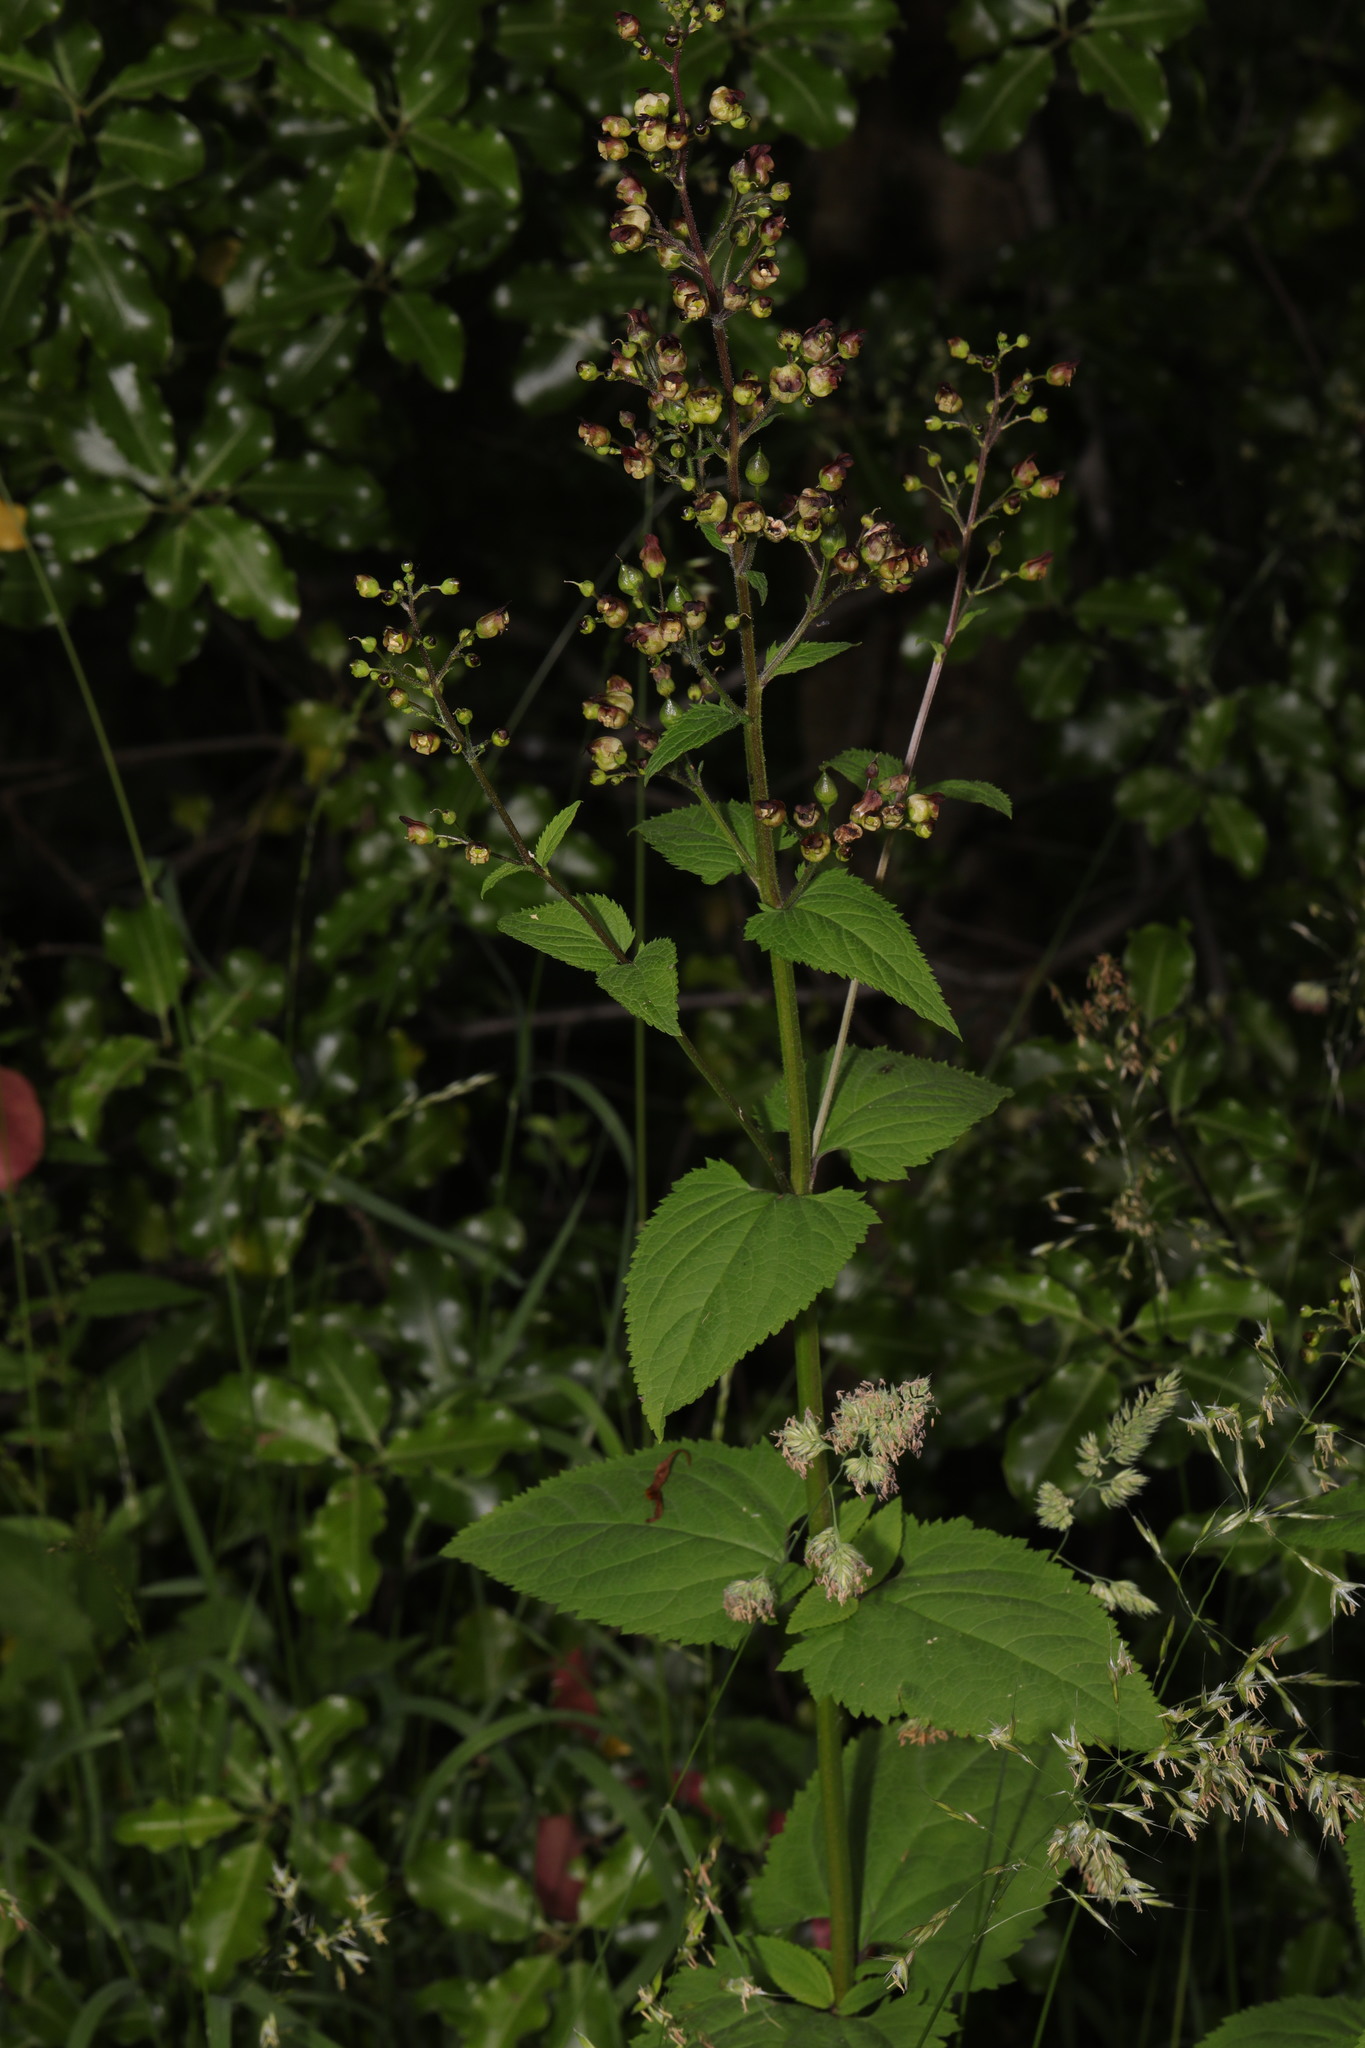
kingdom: Plantae
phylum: Tracheophyta
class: Magnoliopsida
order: Lamiales
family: Scrophulariaceae
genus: Scrophularia
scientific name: Scrophularia nodosa
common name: Common figwort
